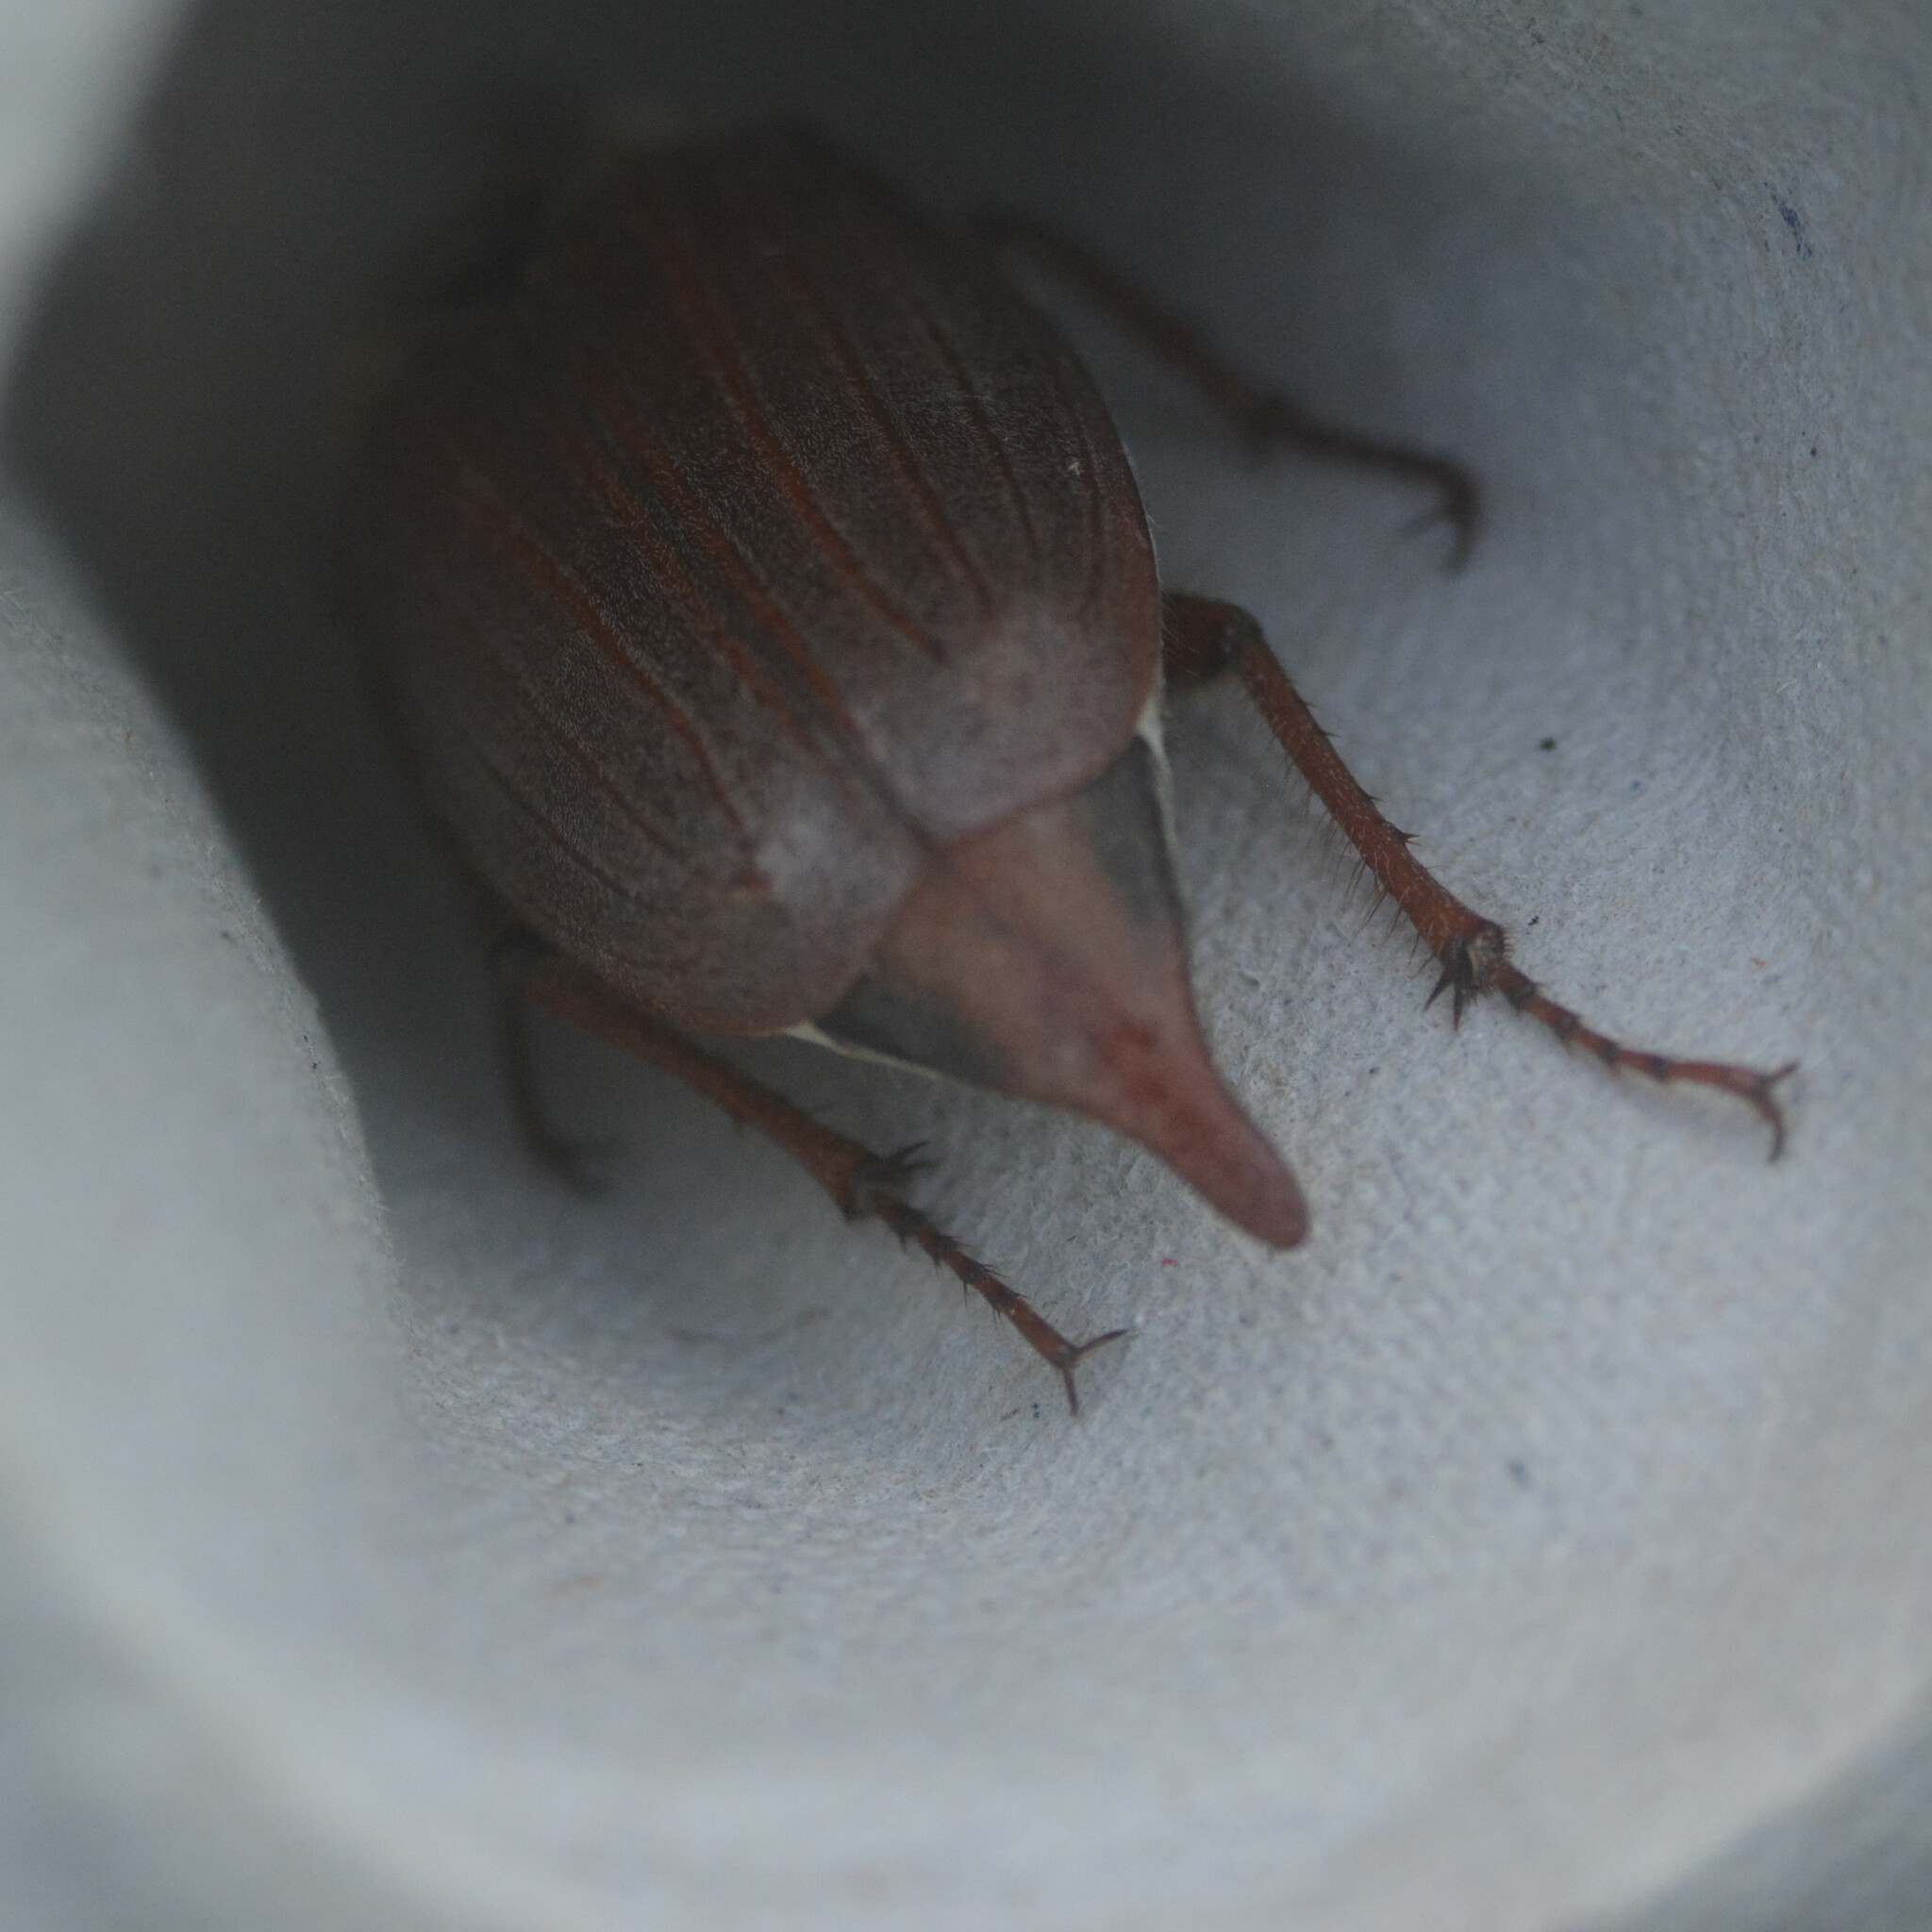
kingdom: Animalia
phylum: Arthropoda
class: Insecta
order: Coleoptera
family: Scarabaeidae
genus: Melolontha
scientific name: Melolontha melolontha
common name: Cockchafer maybeetle
